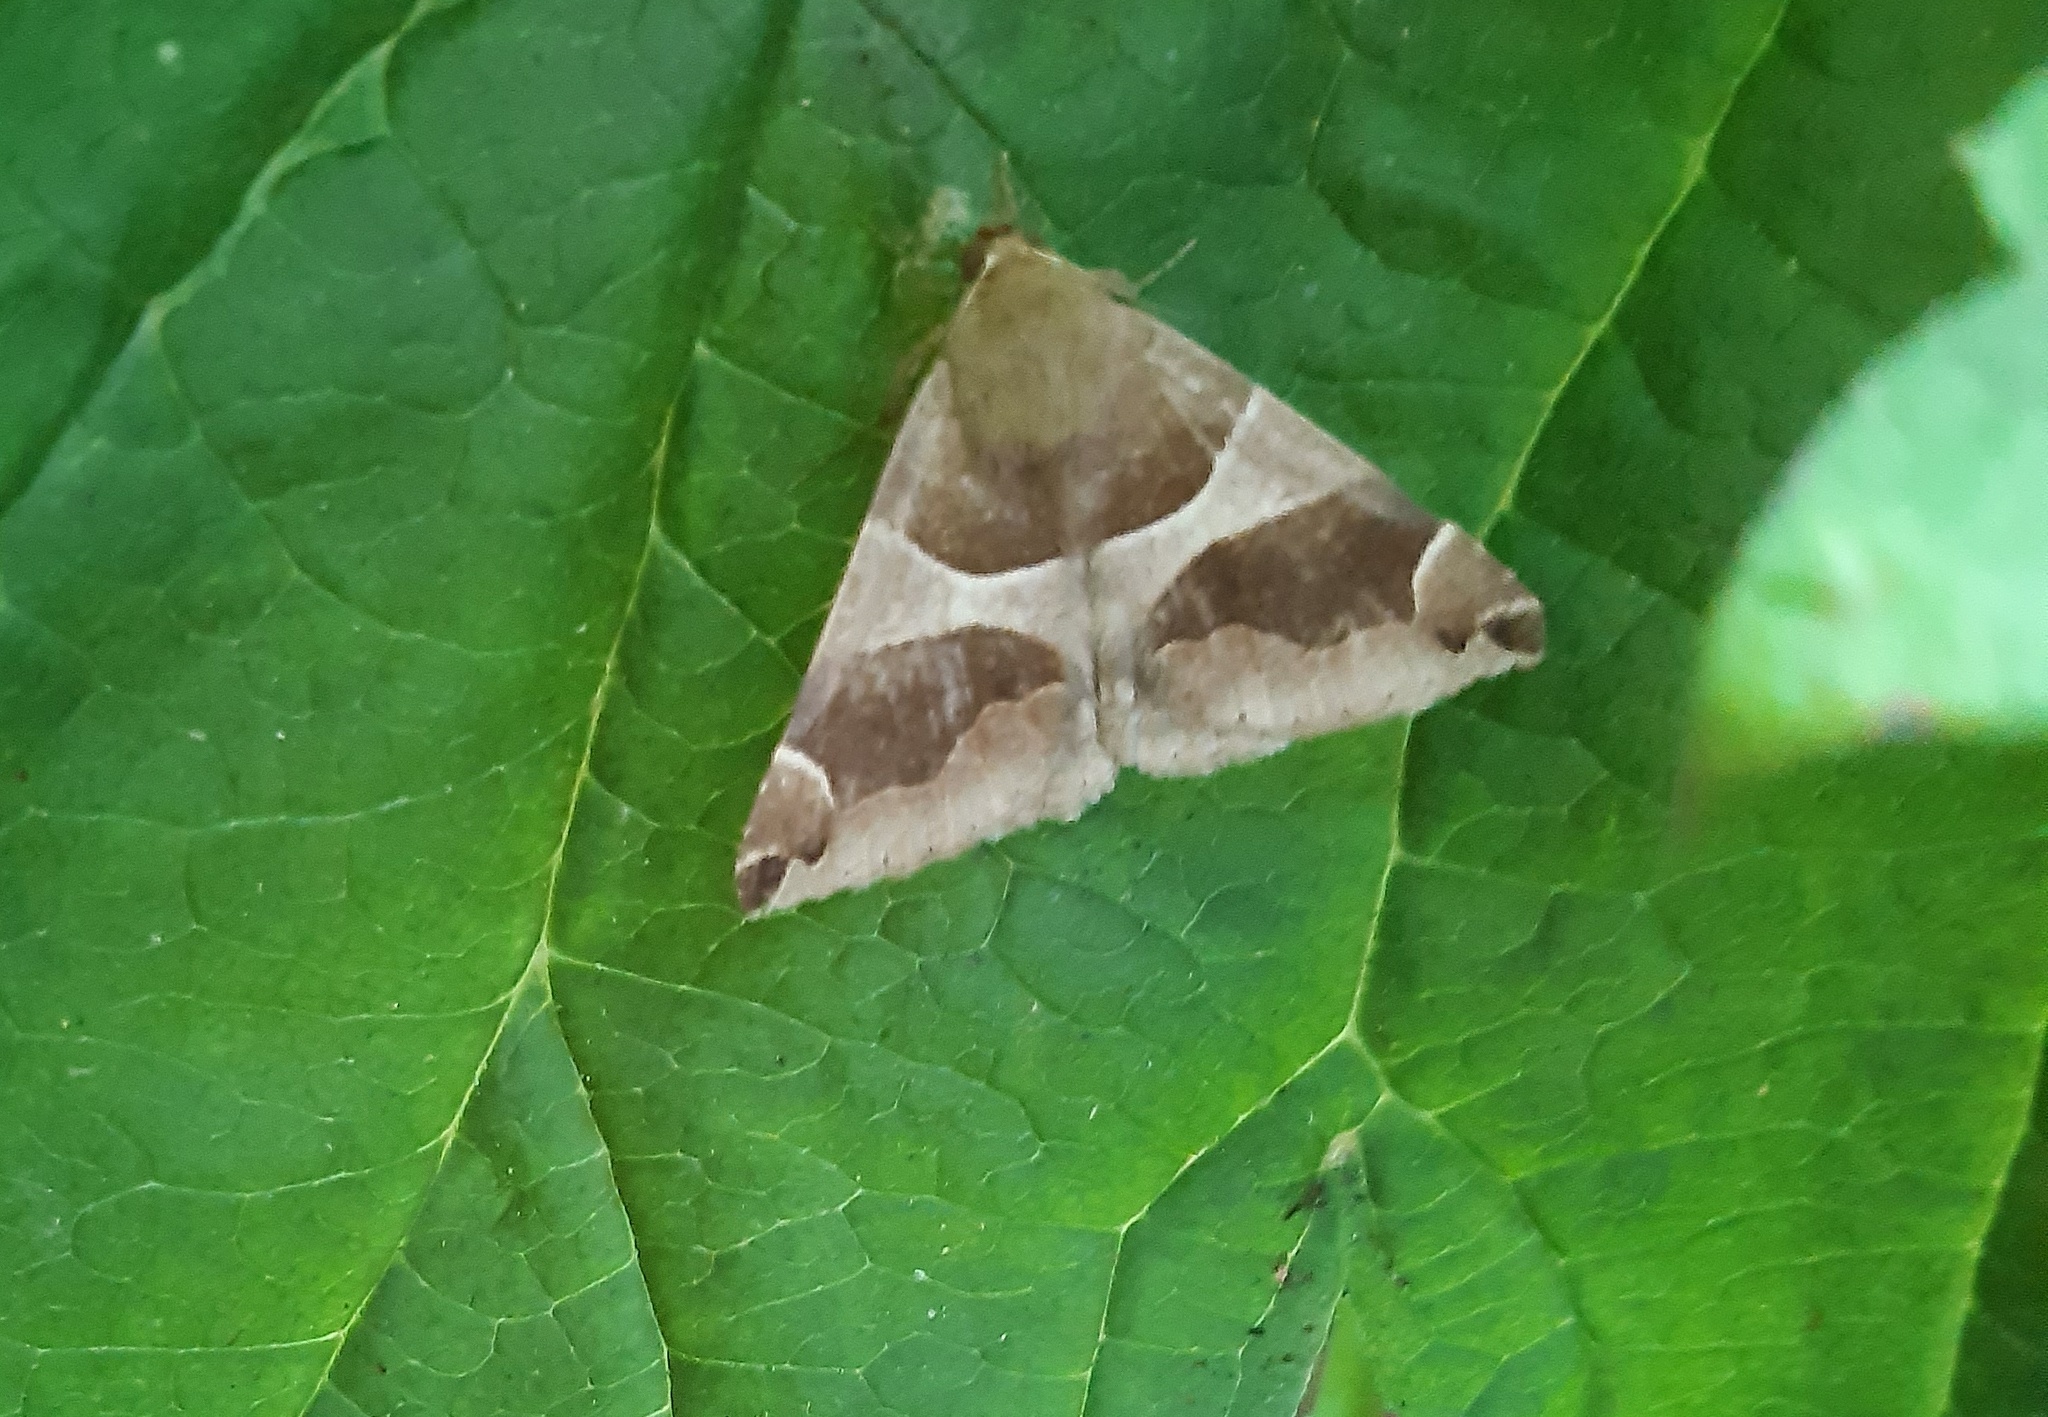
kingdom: Animalia
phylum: Arthropoda
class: Insecta
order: Lepidoptera
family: Erebidae
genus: Dysgonia
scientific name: Dysgonia algira
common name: Passenger
